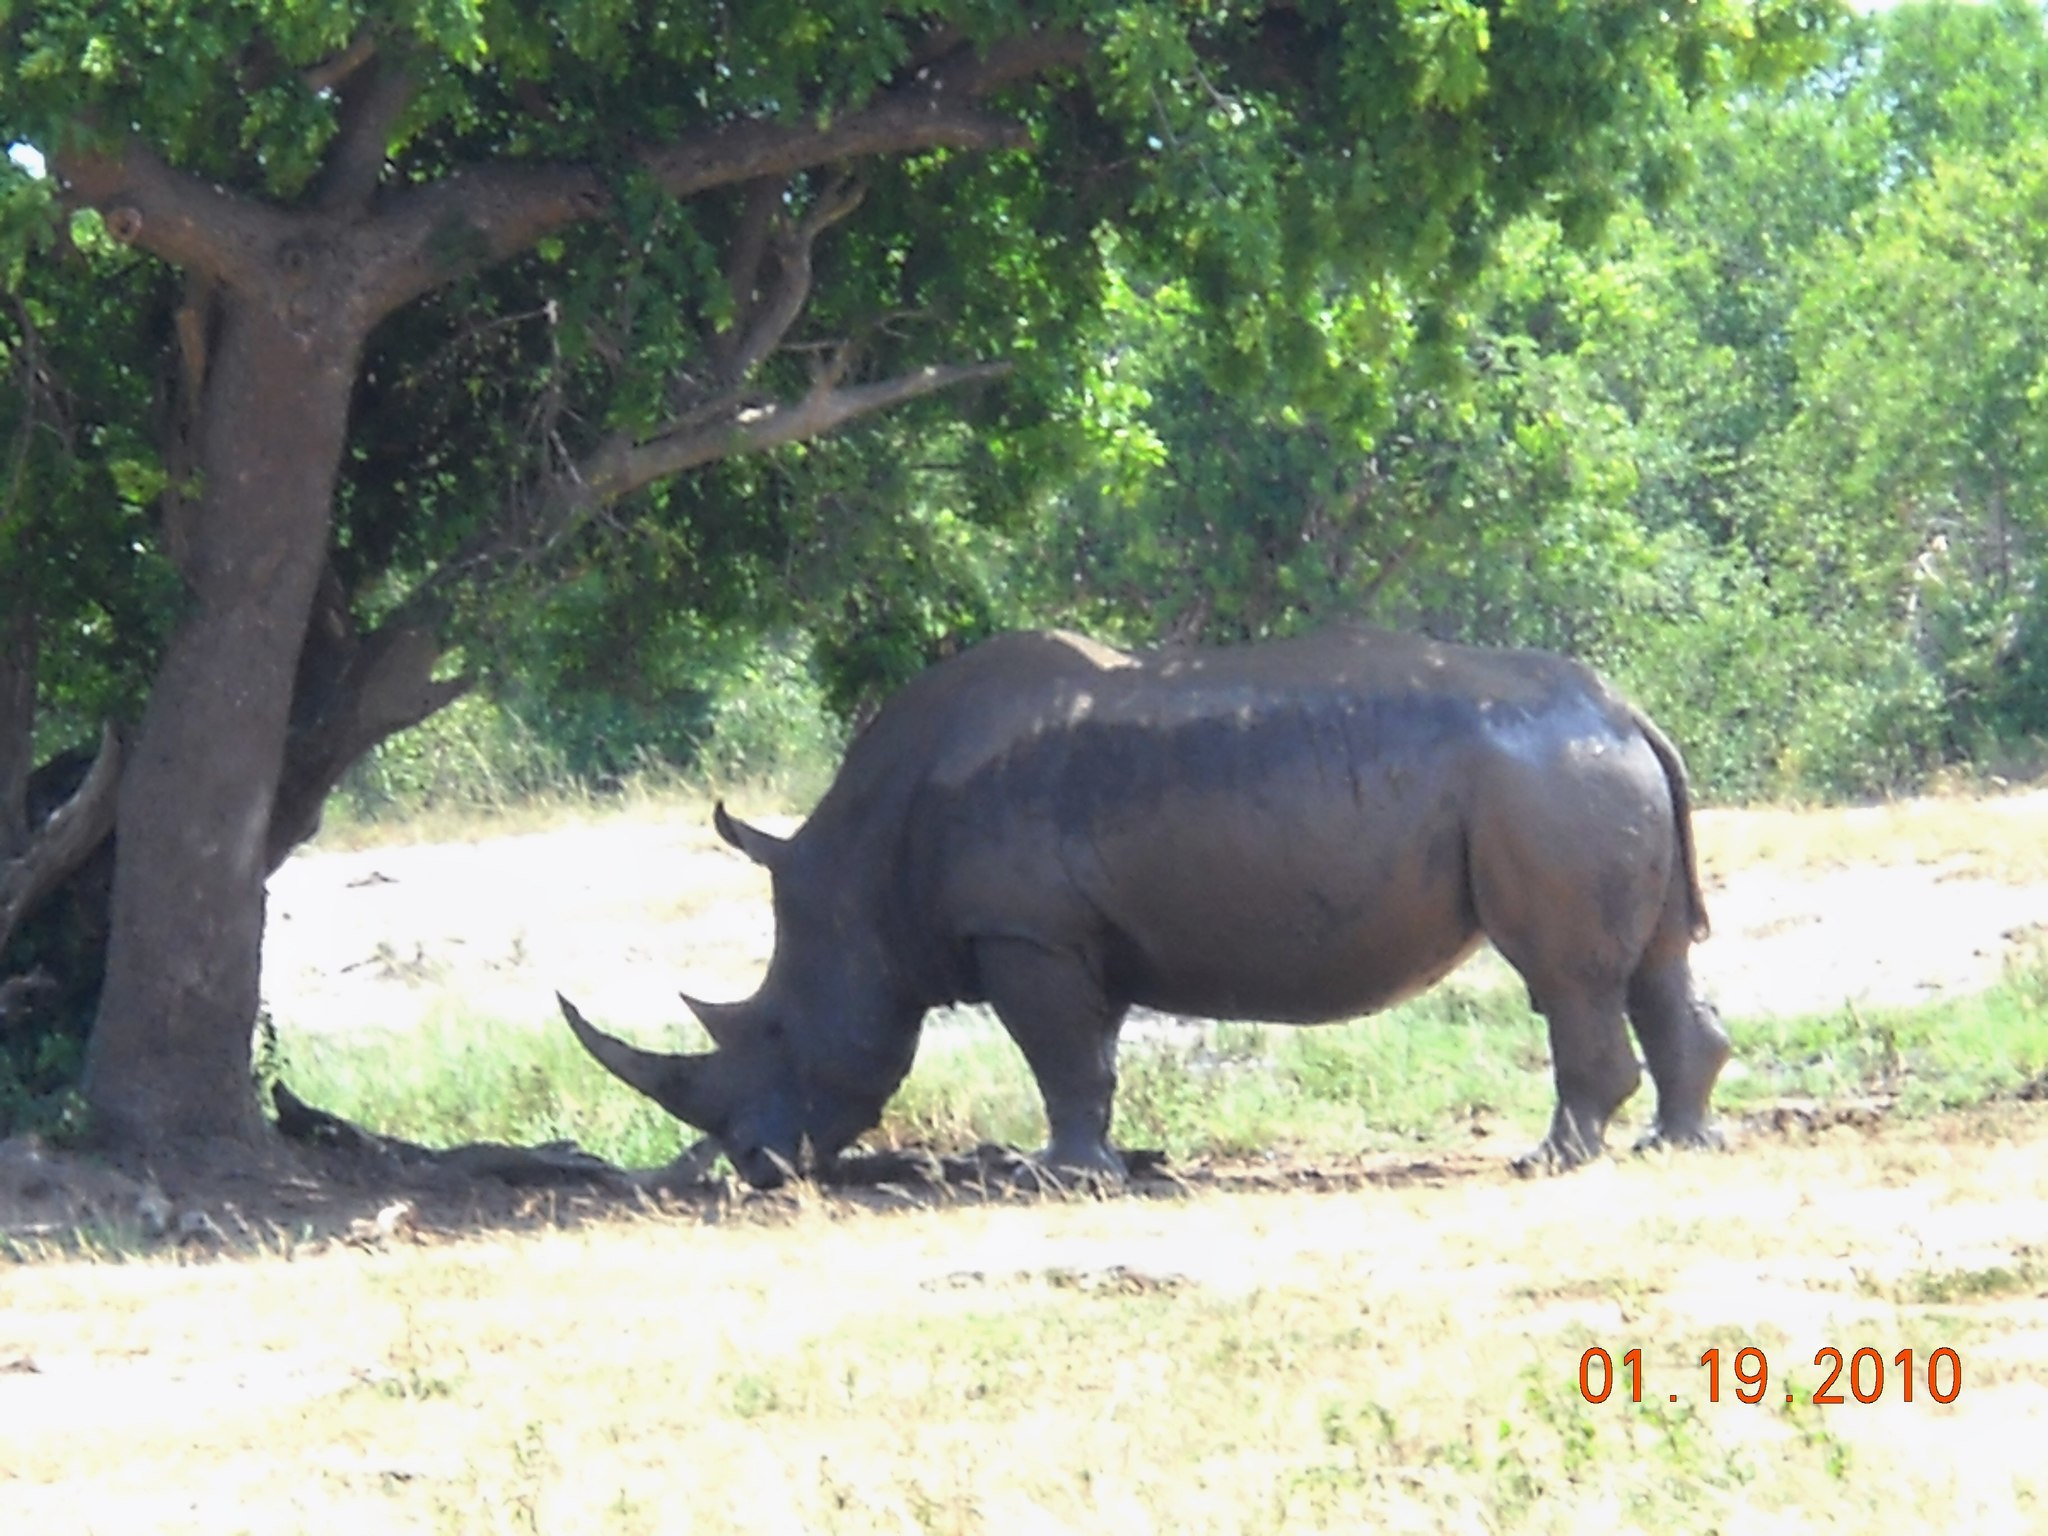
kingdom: Animalia
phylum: Chordata
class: Mammalia
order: Perissodactyla
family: Rhinocerotidae
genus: Ceratotherium
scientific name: Ceratotherium simum
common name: White rhinoceros
